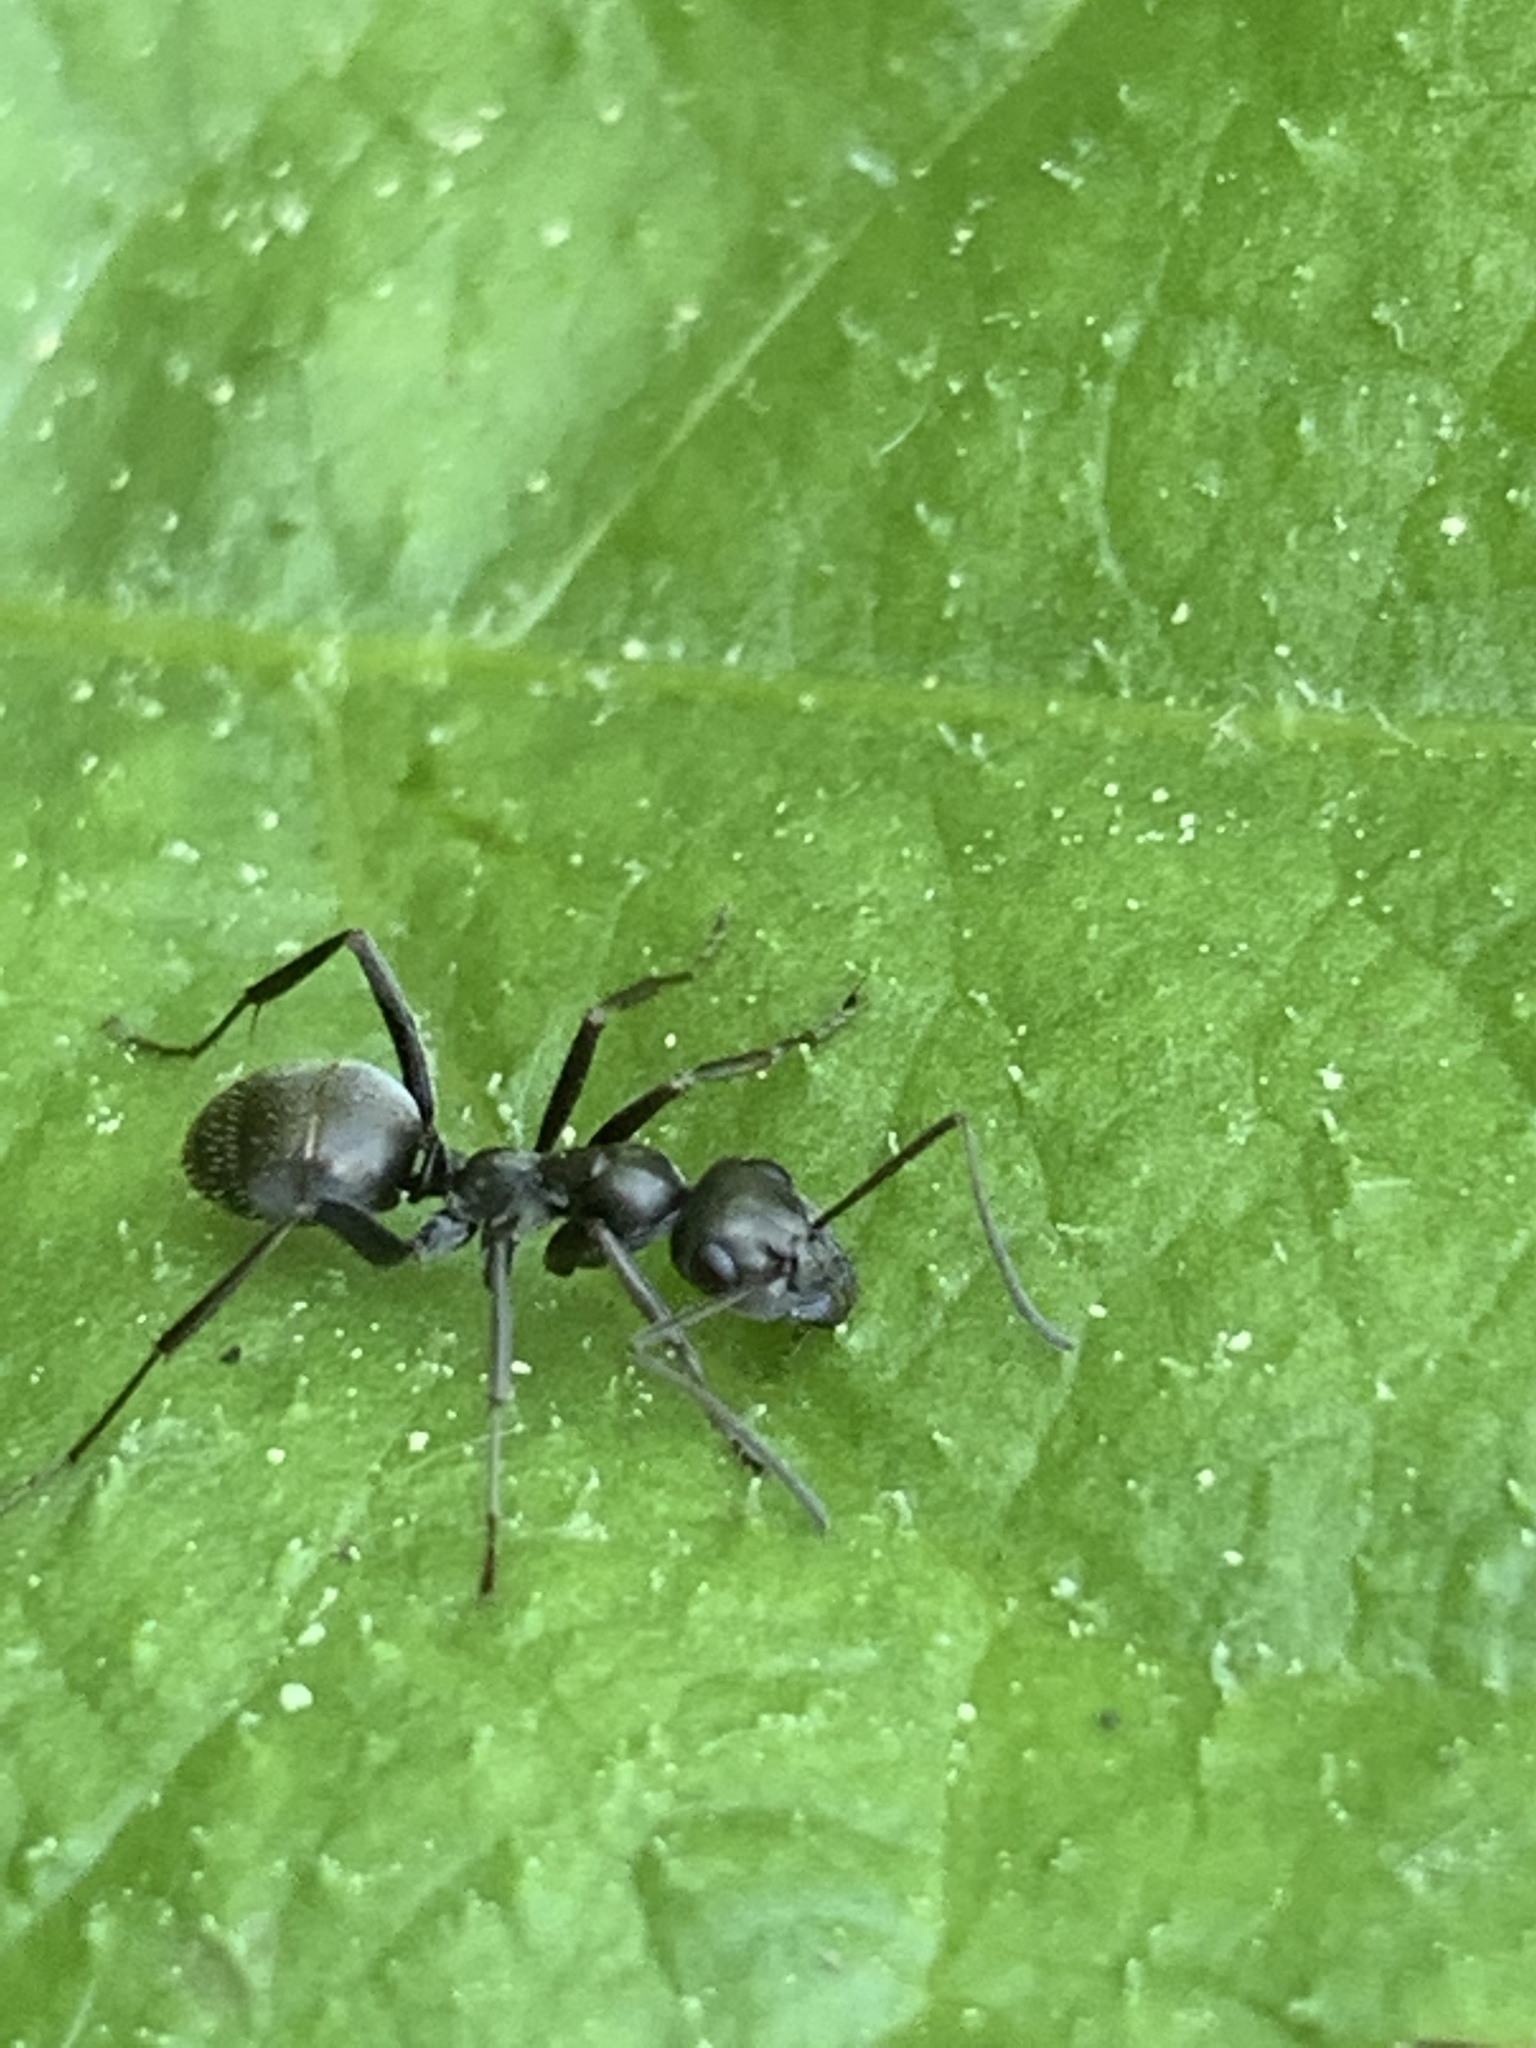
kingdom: Animalia
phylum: Arthropoda
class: Insecta
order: Hymenoptera
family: Formicidae
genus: Formica
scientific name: Formica subsericea
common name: Silky field ant
